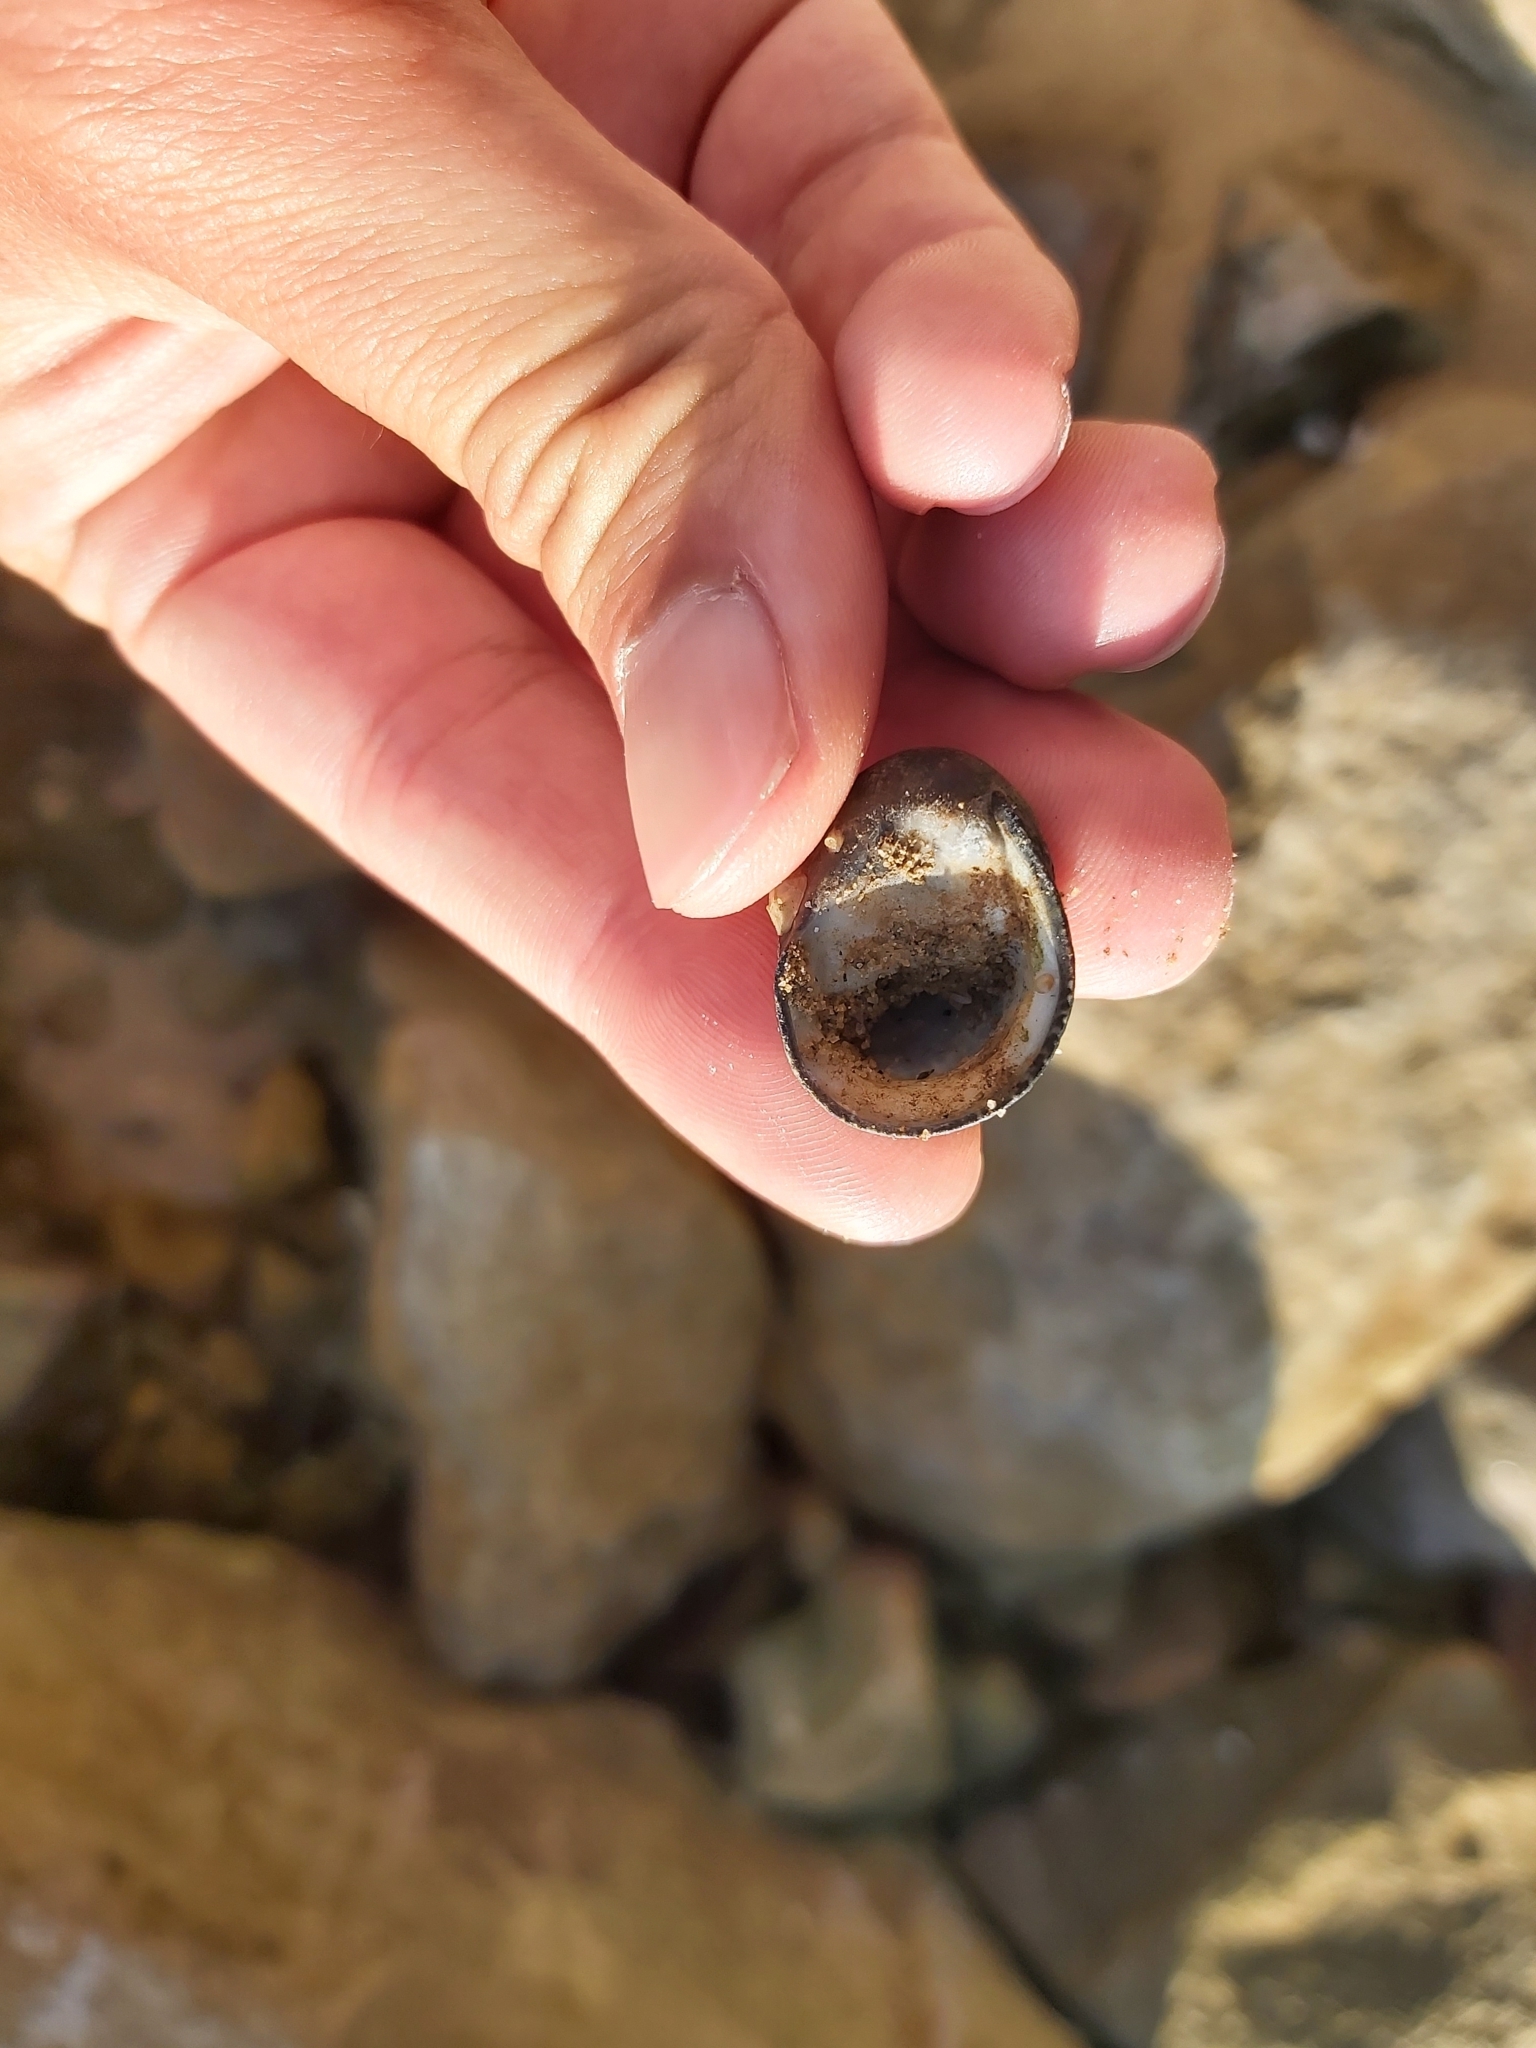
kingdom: Animalia
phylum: Mollusca
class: Gastropoda
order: Cycloneritida
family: Neritidae
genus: Nerita
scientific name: Nerita melanotragus
